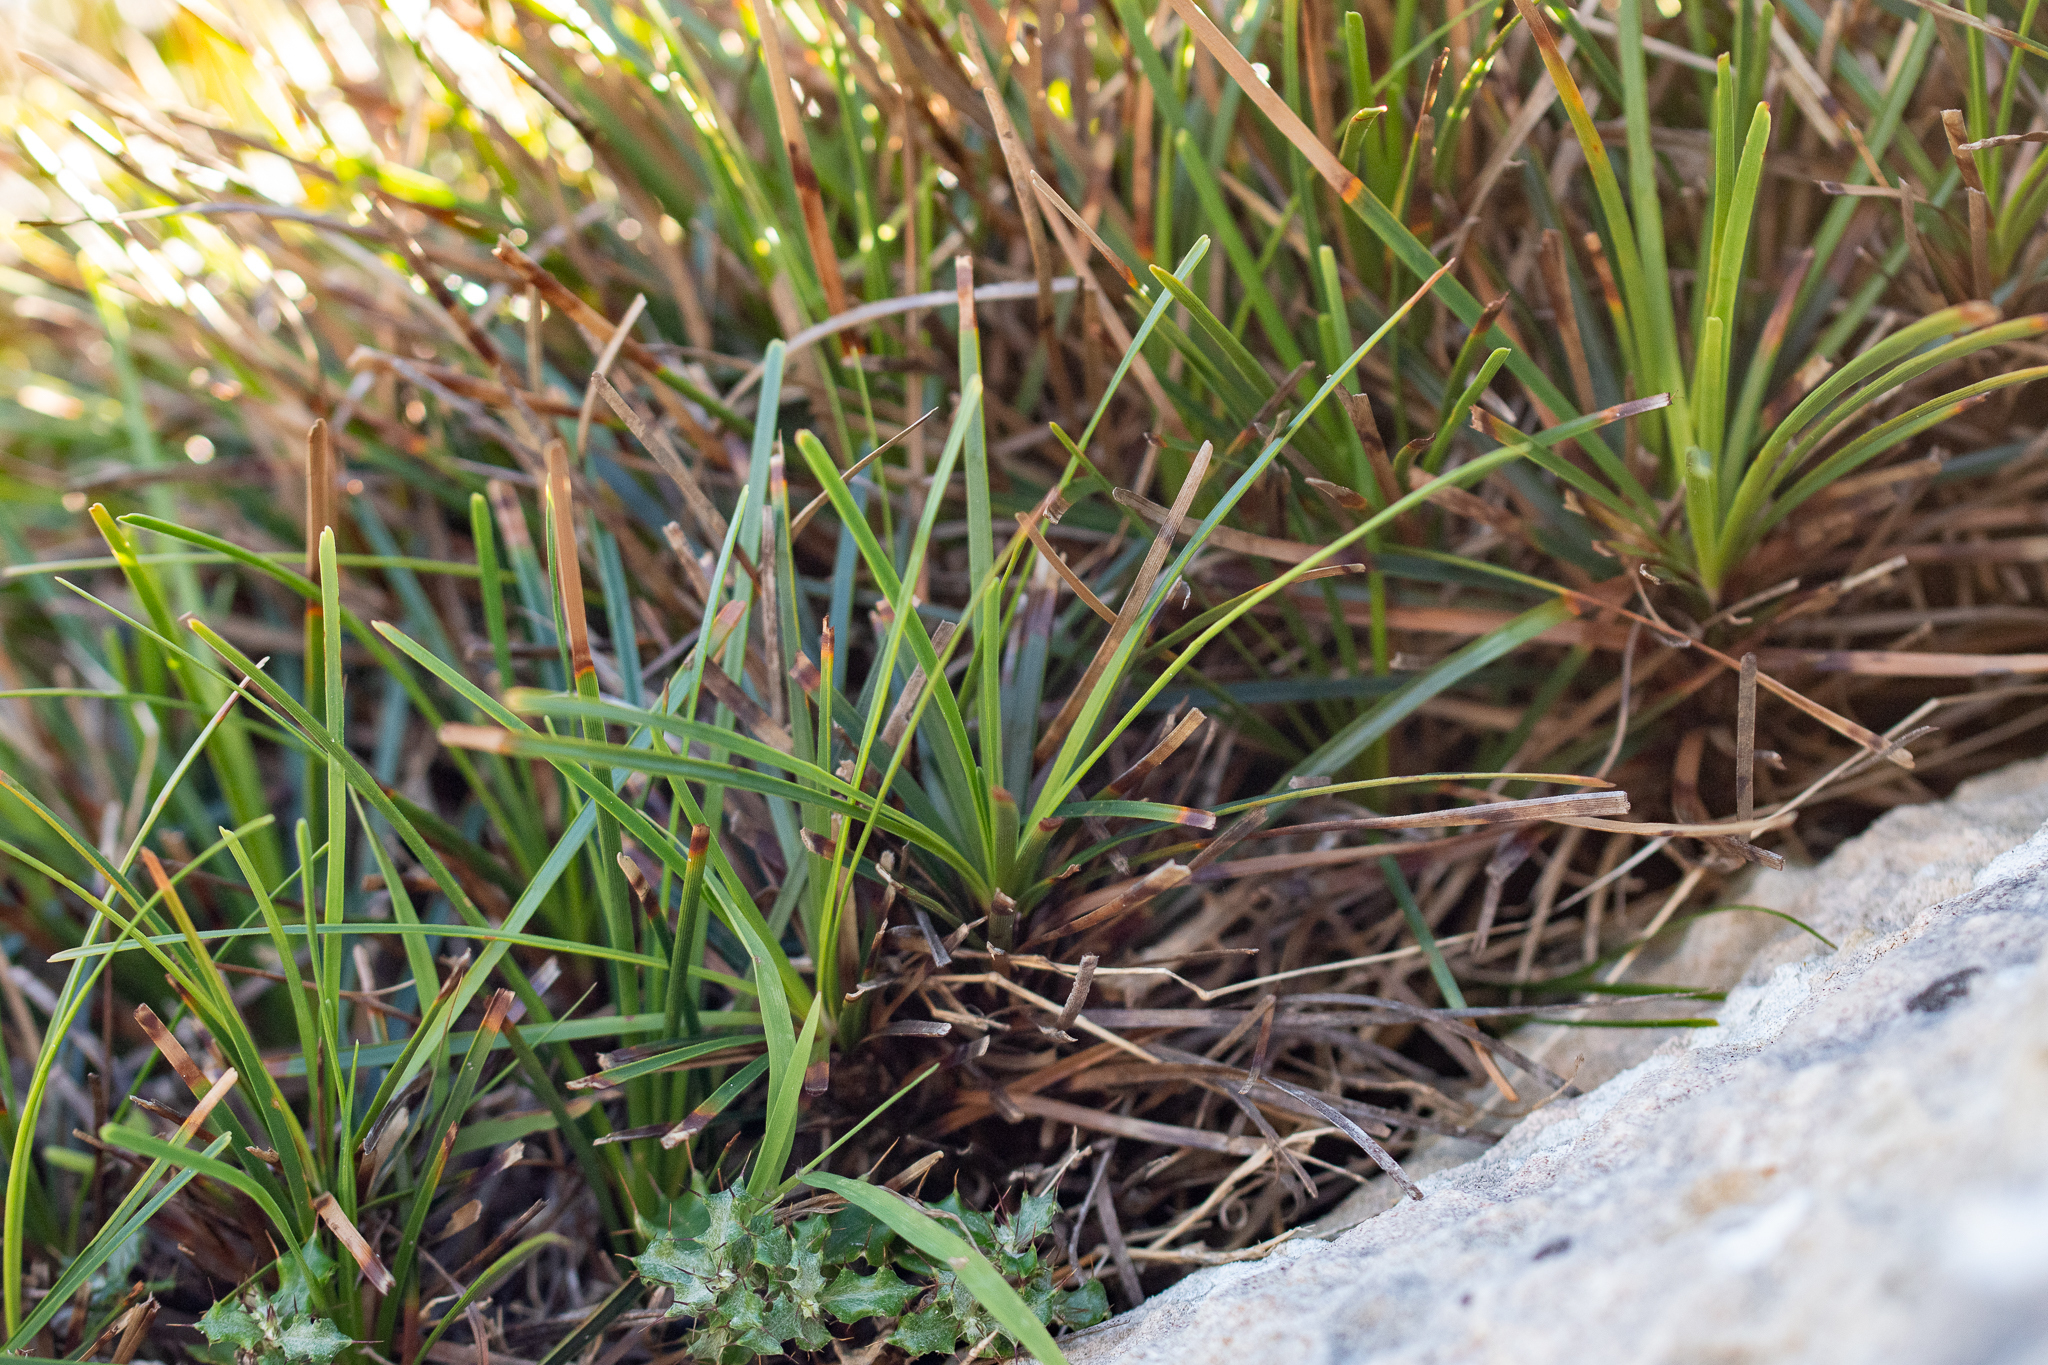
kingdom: Plantae
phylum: Tracheophyta
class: Liliopsida
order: Poales
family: Cyperaceae
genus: Ficinia
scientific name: Ficinia praemorsa
